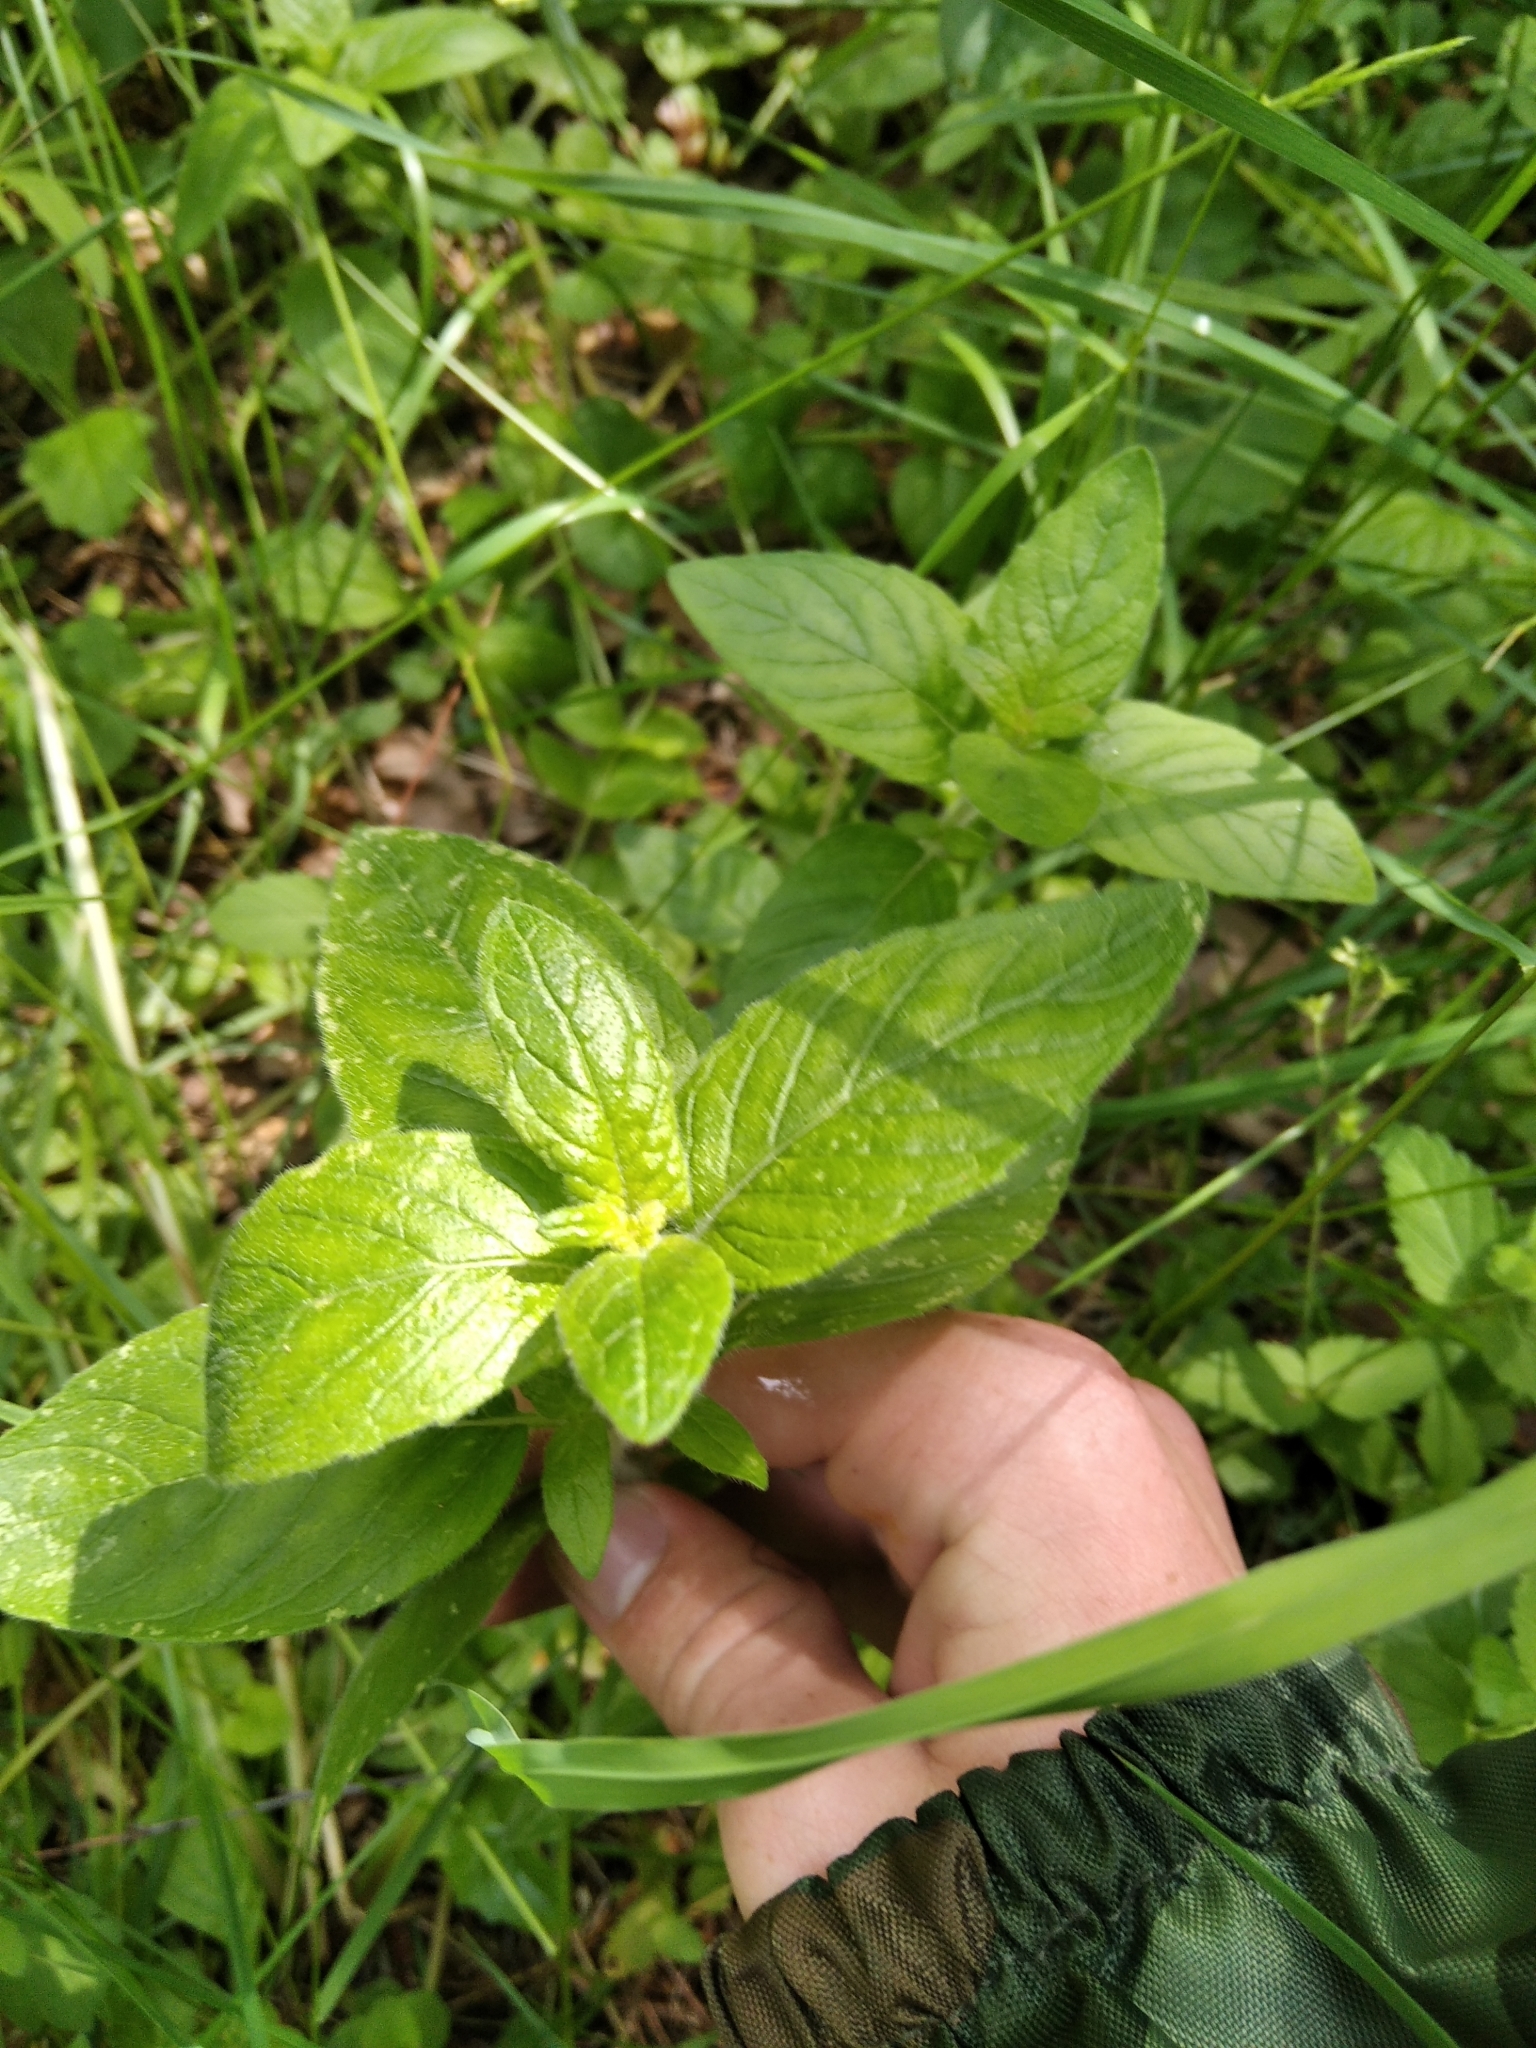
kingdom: Plantae
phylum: Tracheophyta
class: Magnoliopsida
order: Lamiales
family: Lamiaceae
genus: Clinopodium
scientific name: Clinopodium vulgare
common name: Wild basil
